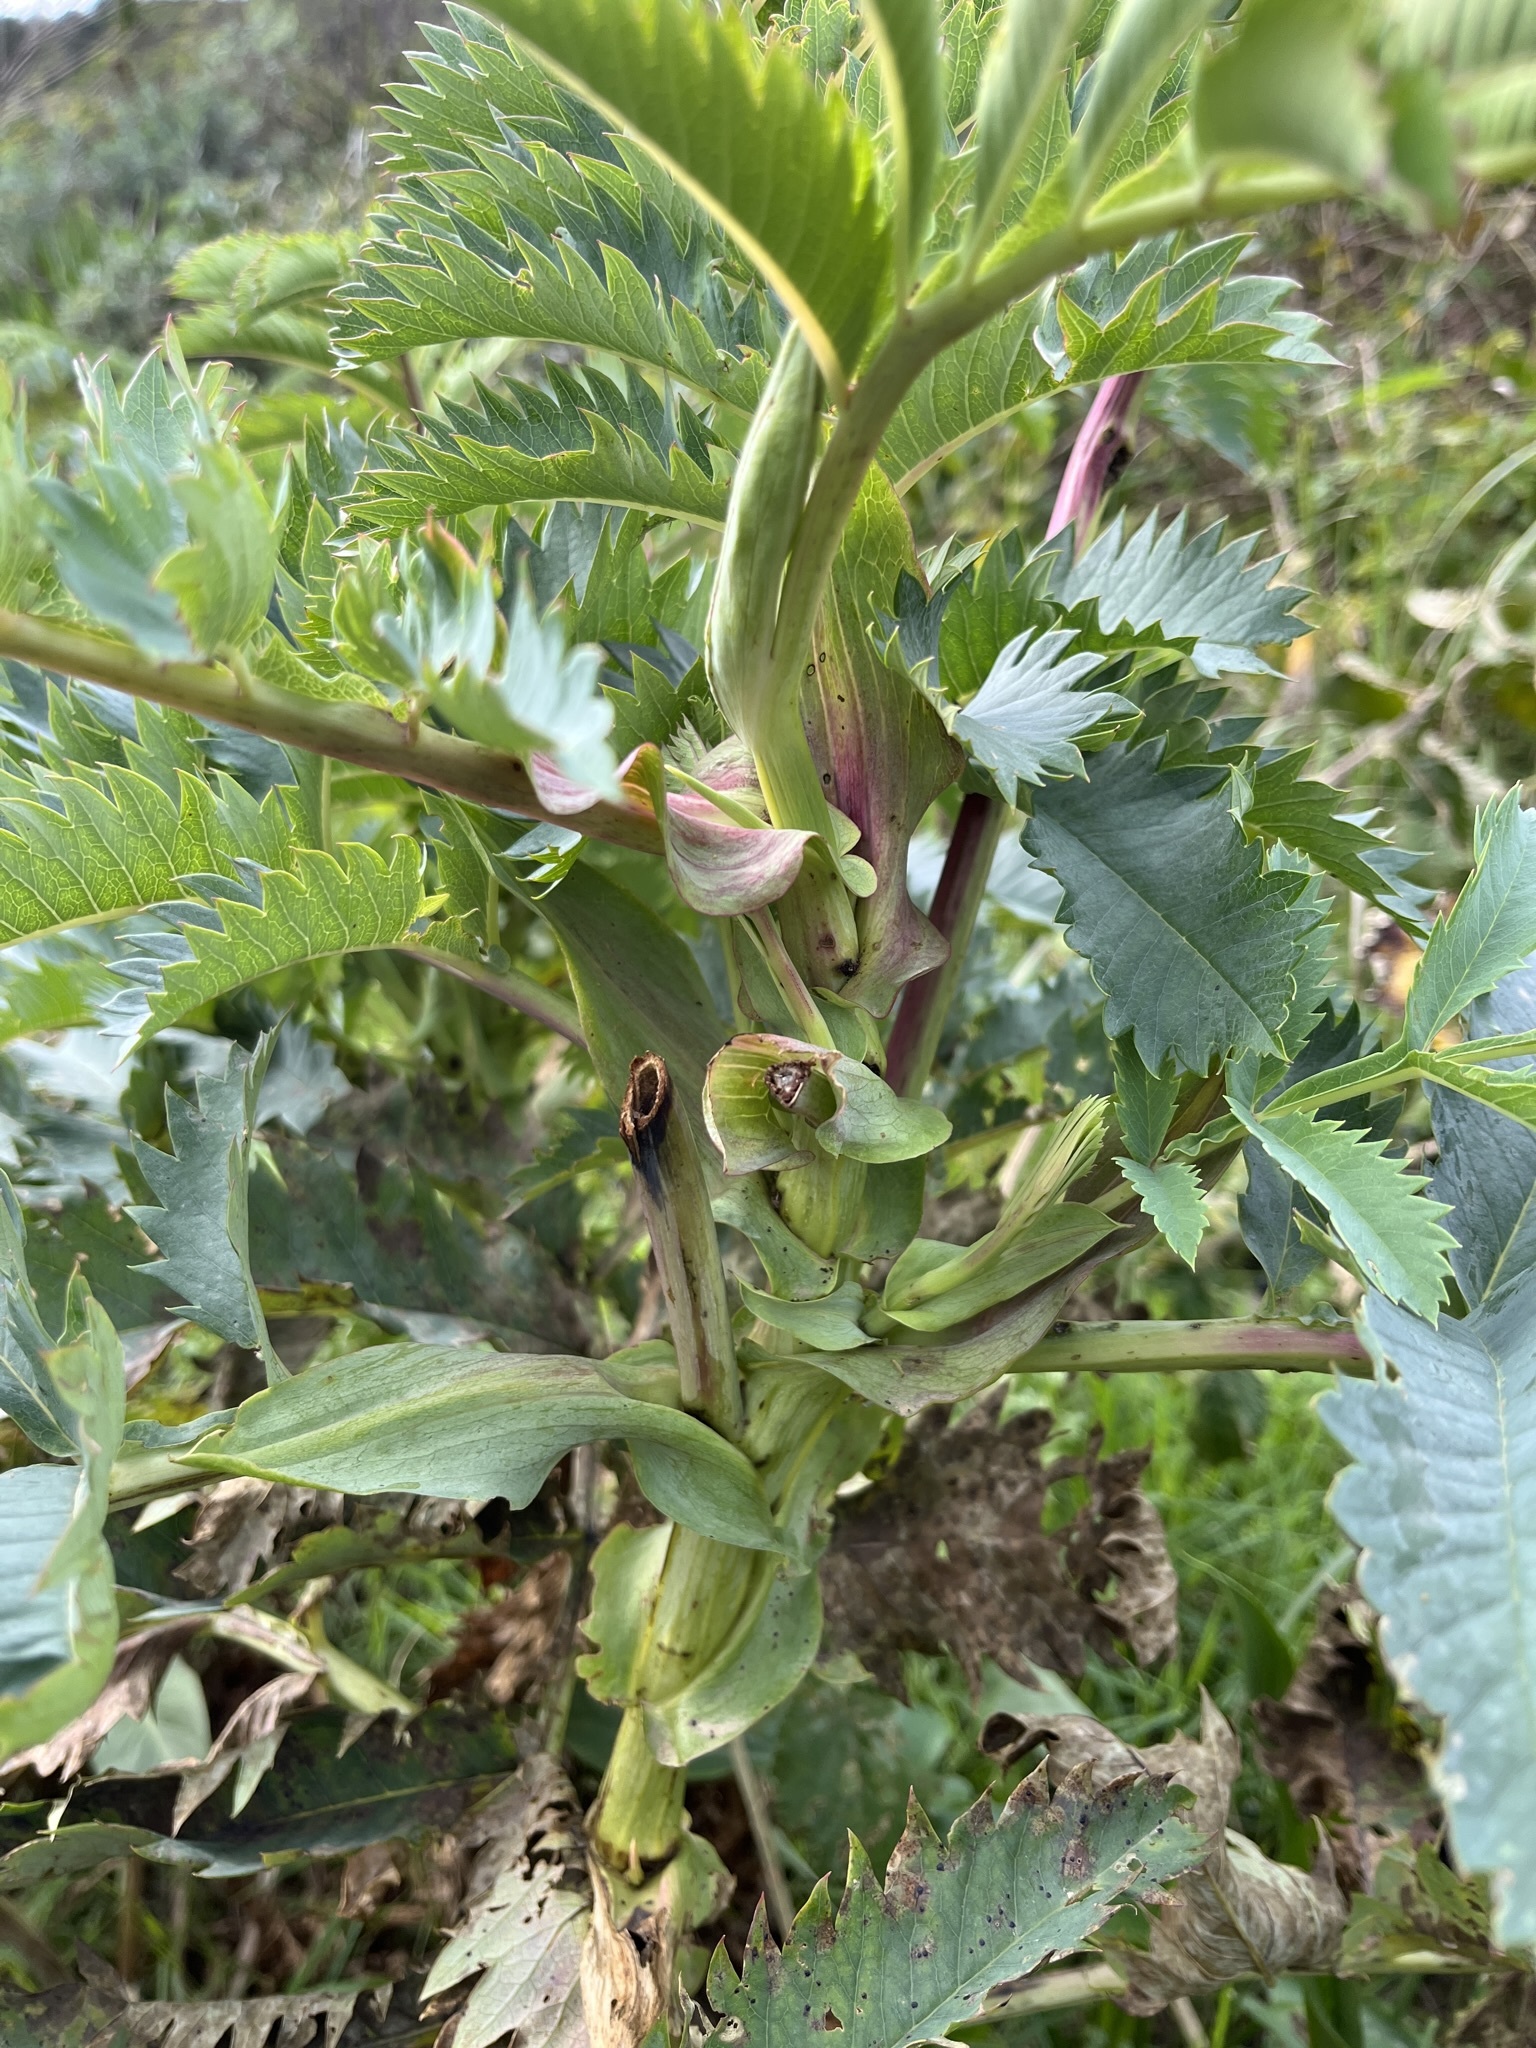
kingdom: Plantae
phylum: Tracheophyta
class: Magnoliopsida
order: Geraniales
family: Melianthaceae
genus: Melianthus
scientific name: Melianthus major
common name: Honey-flower
